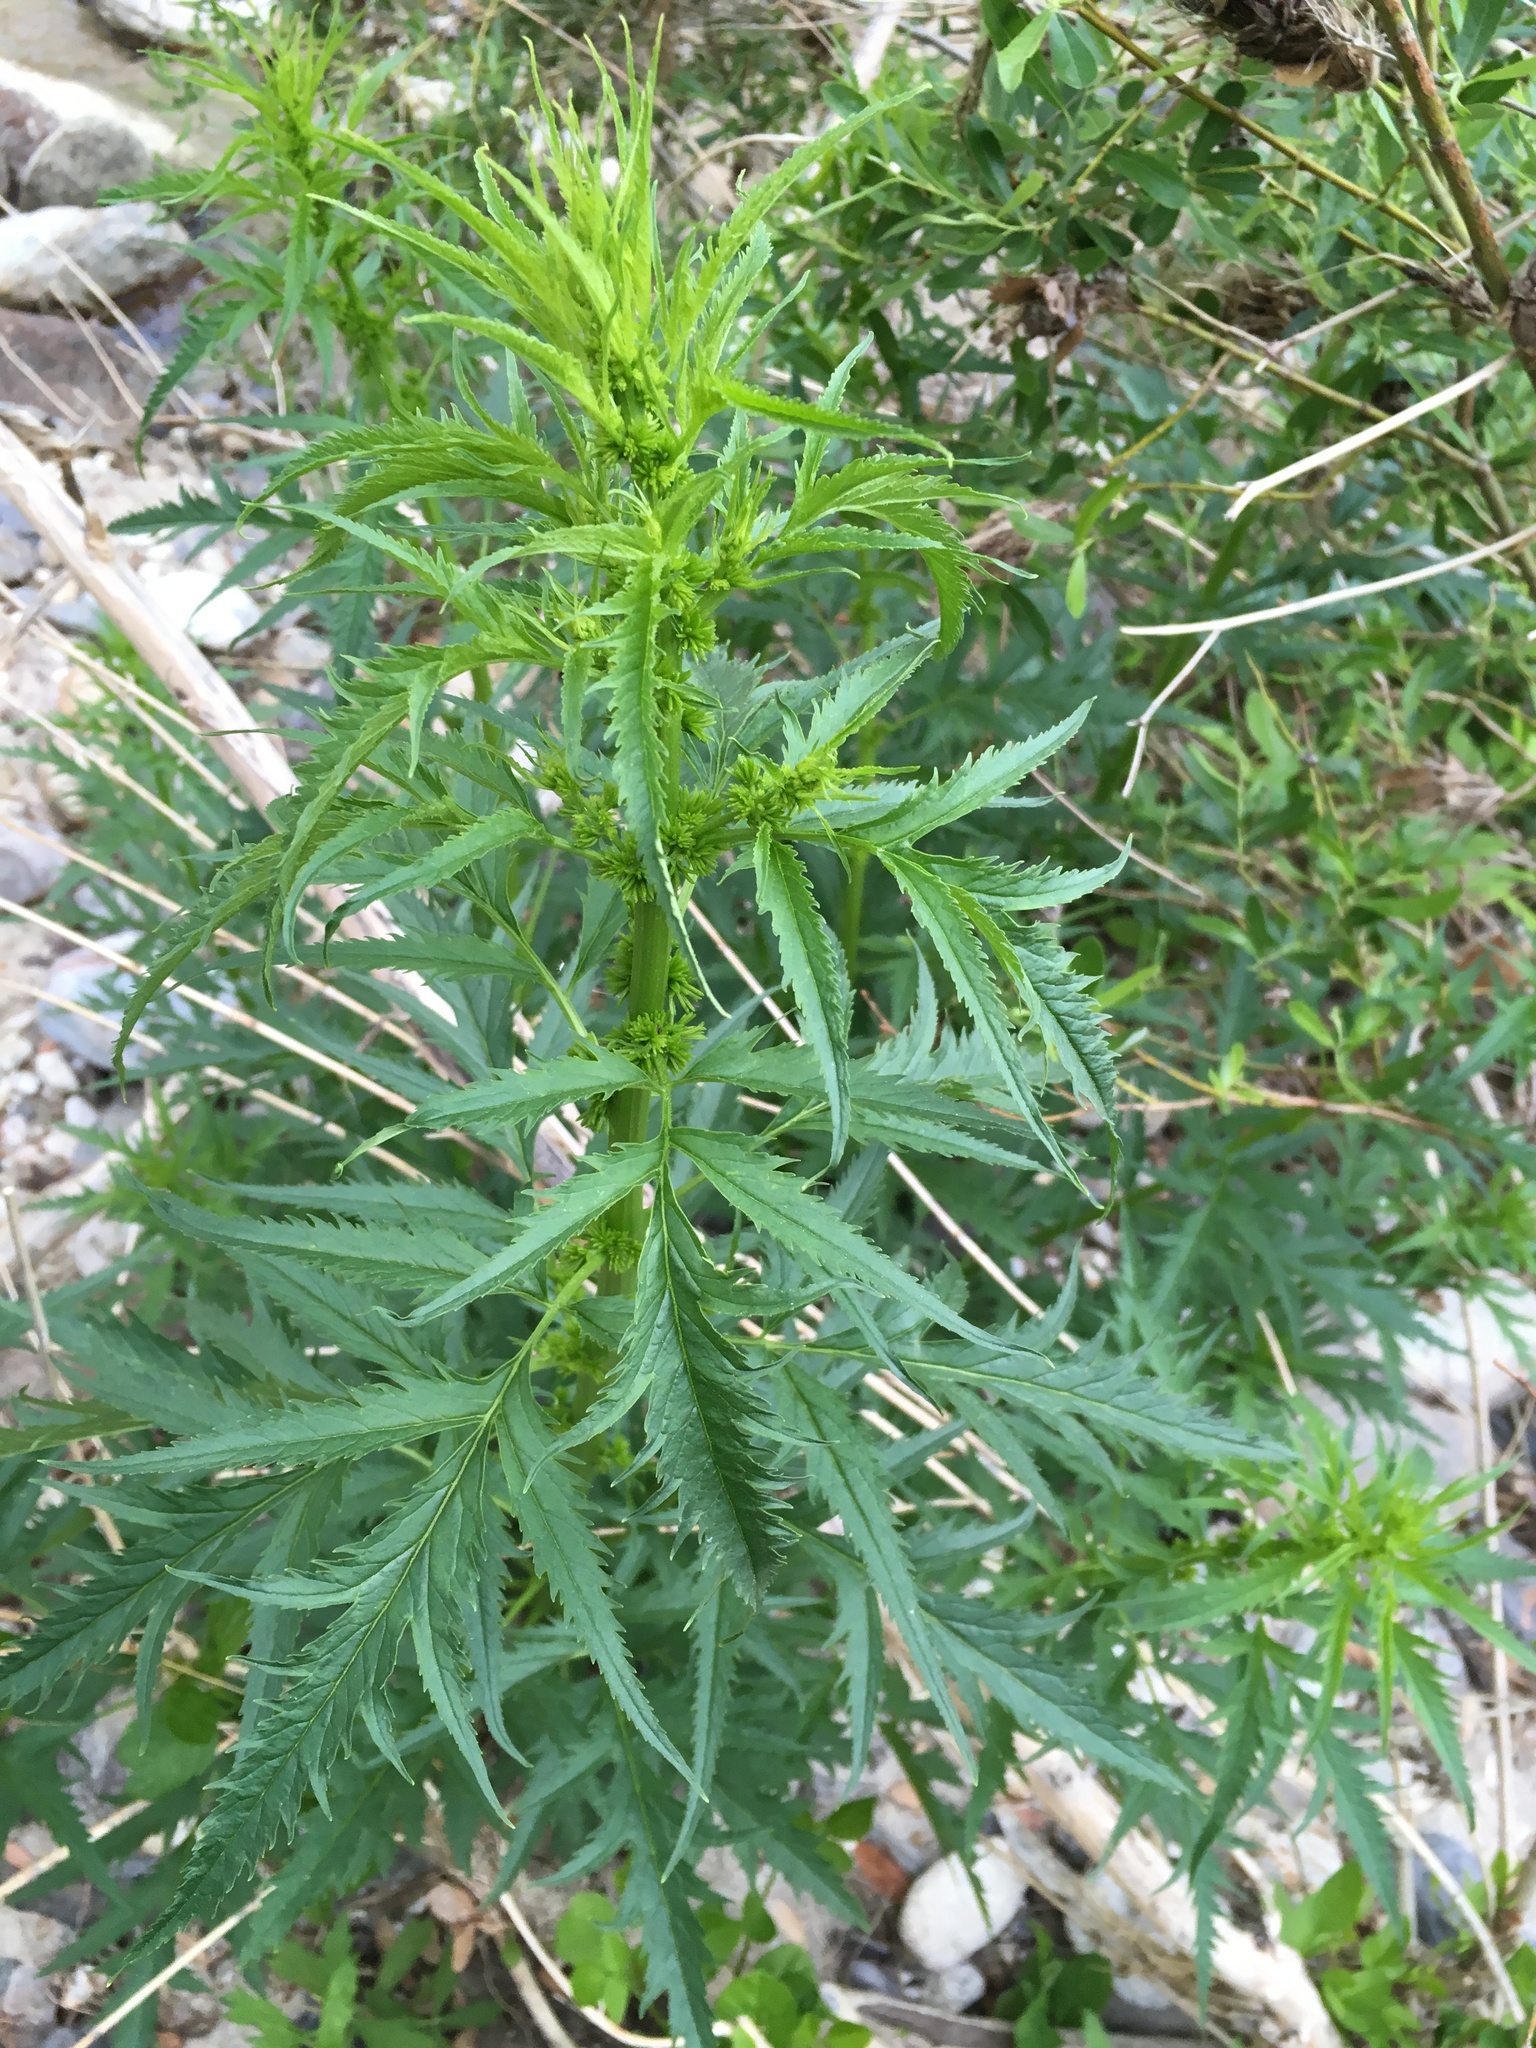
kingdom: Plantae
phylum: Tracheophyta
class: Magnoliopsida
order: Cucurbitales
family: Datiscaceae
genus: Datisca
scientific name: Datisca glomerata
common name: Durango-root
